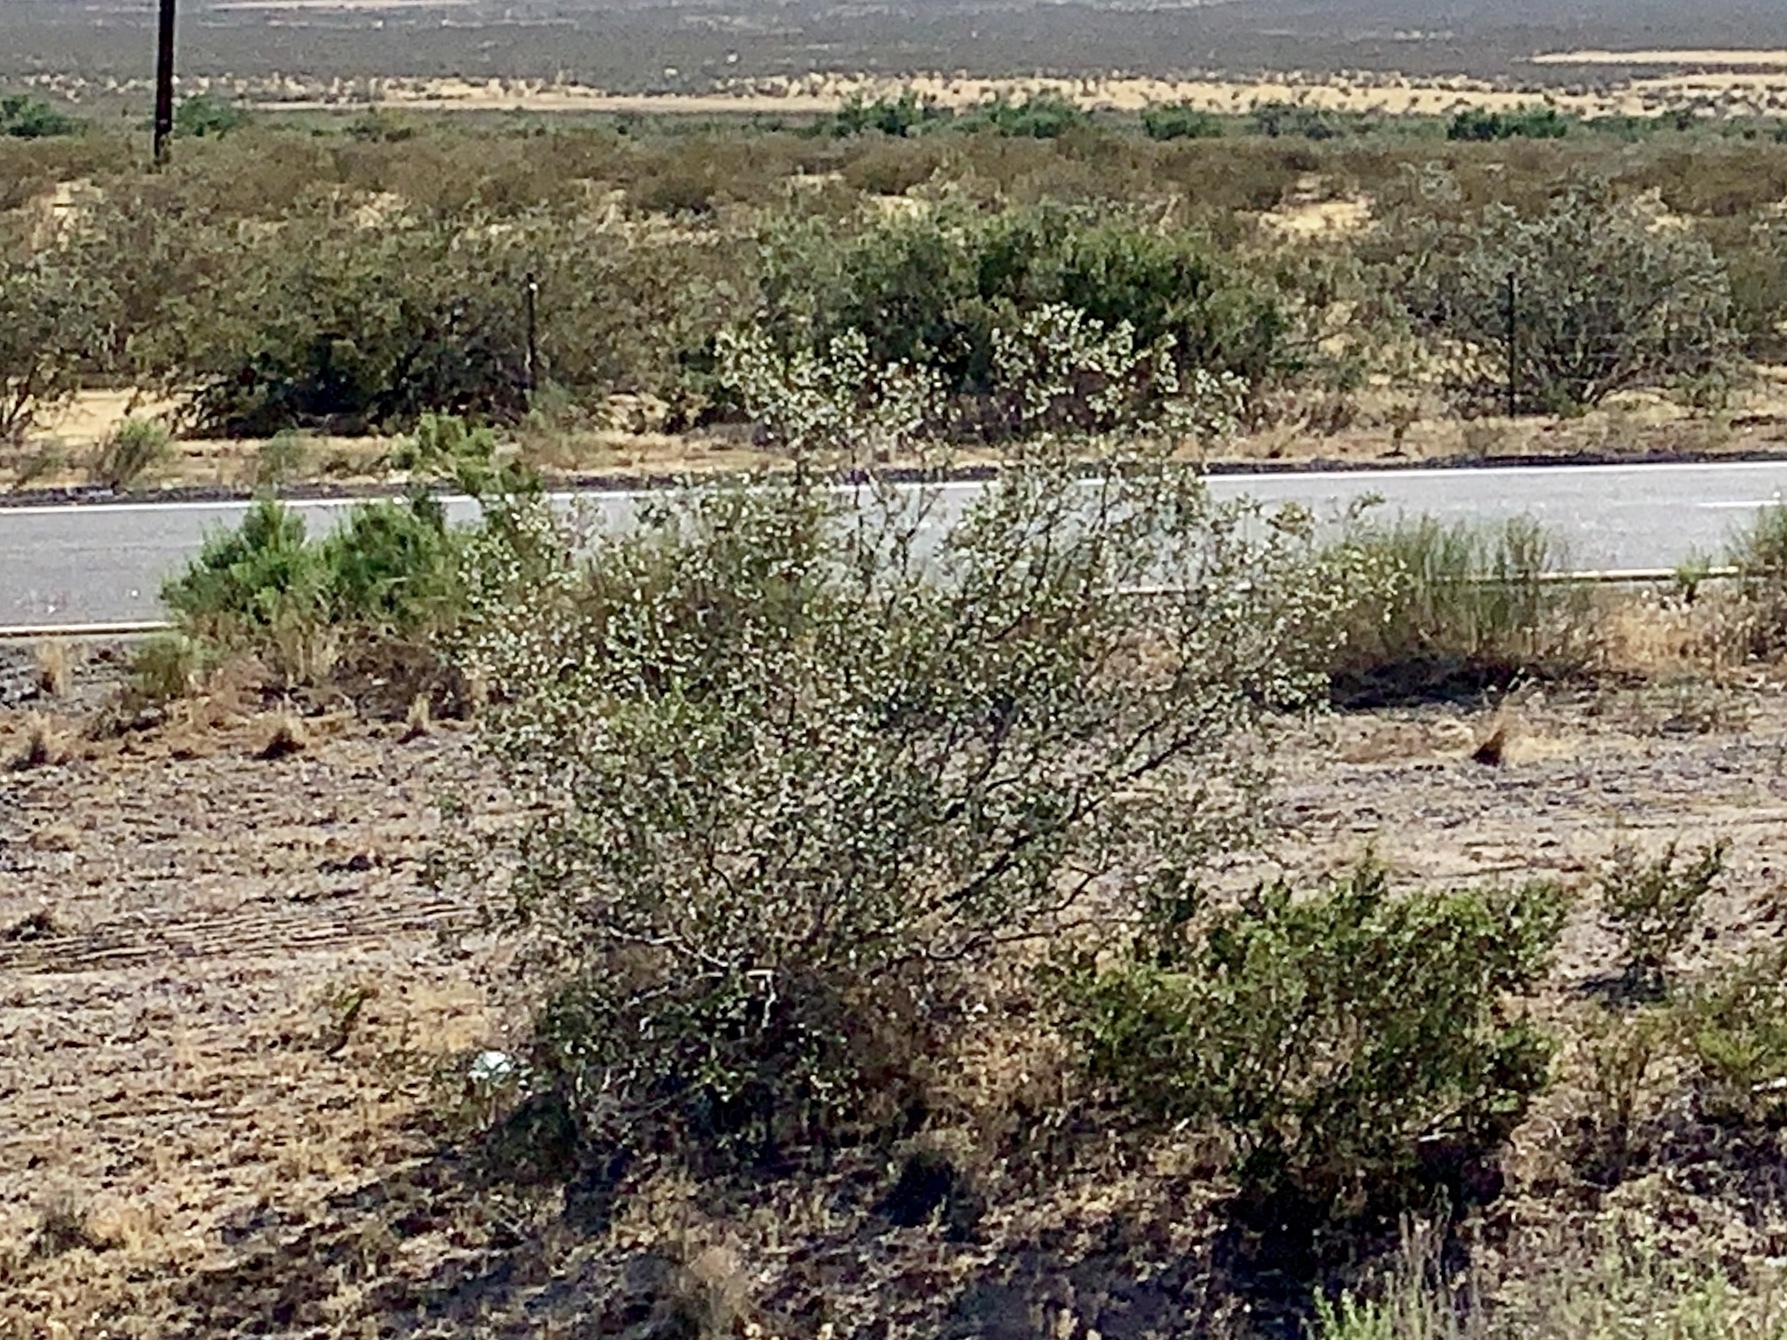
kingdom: Plantae
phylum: Tracheophyta
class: Magnoliopsida
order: Zygophyllales
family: Zygophyllaceae
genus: Larrea
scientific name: Larrea tridentata
